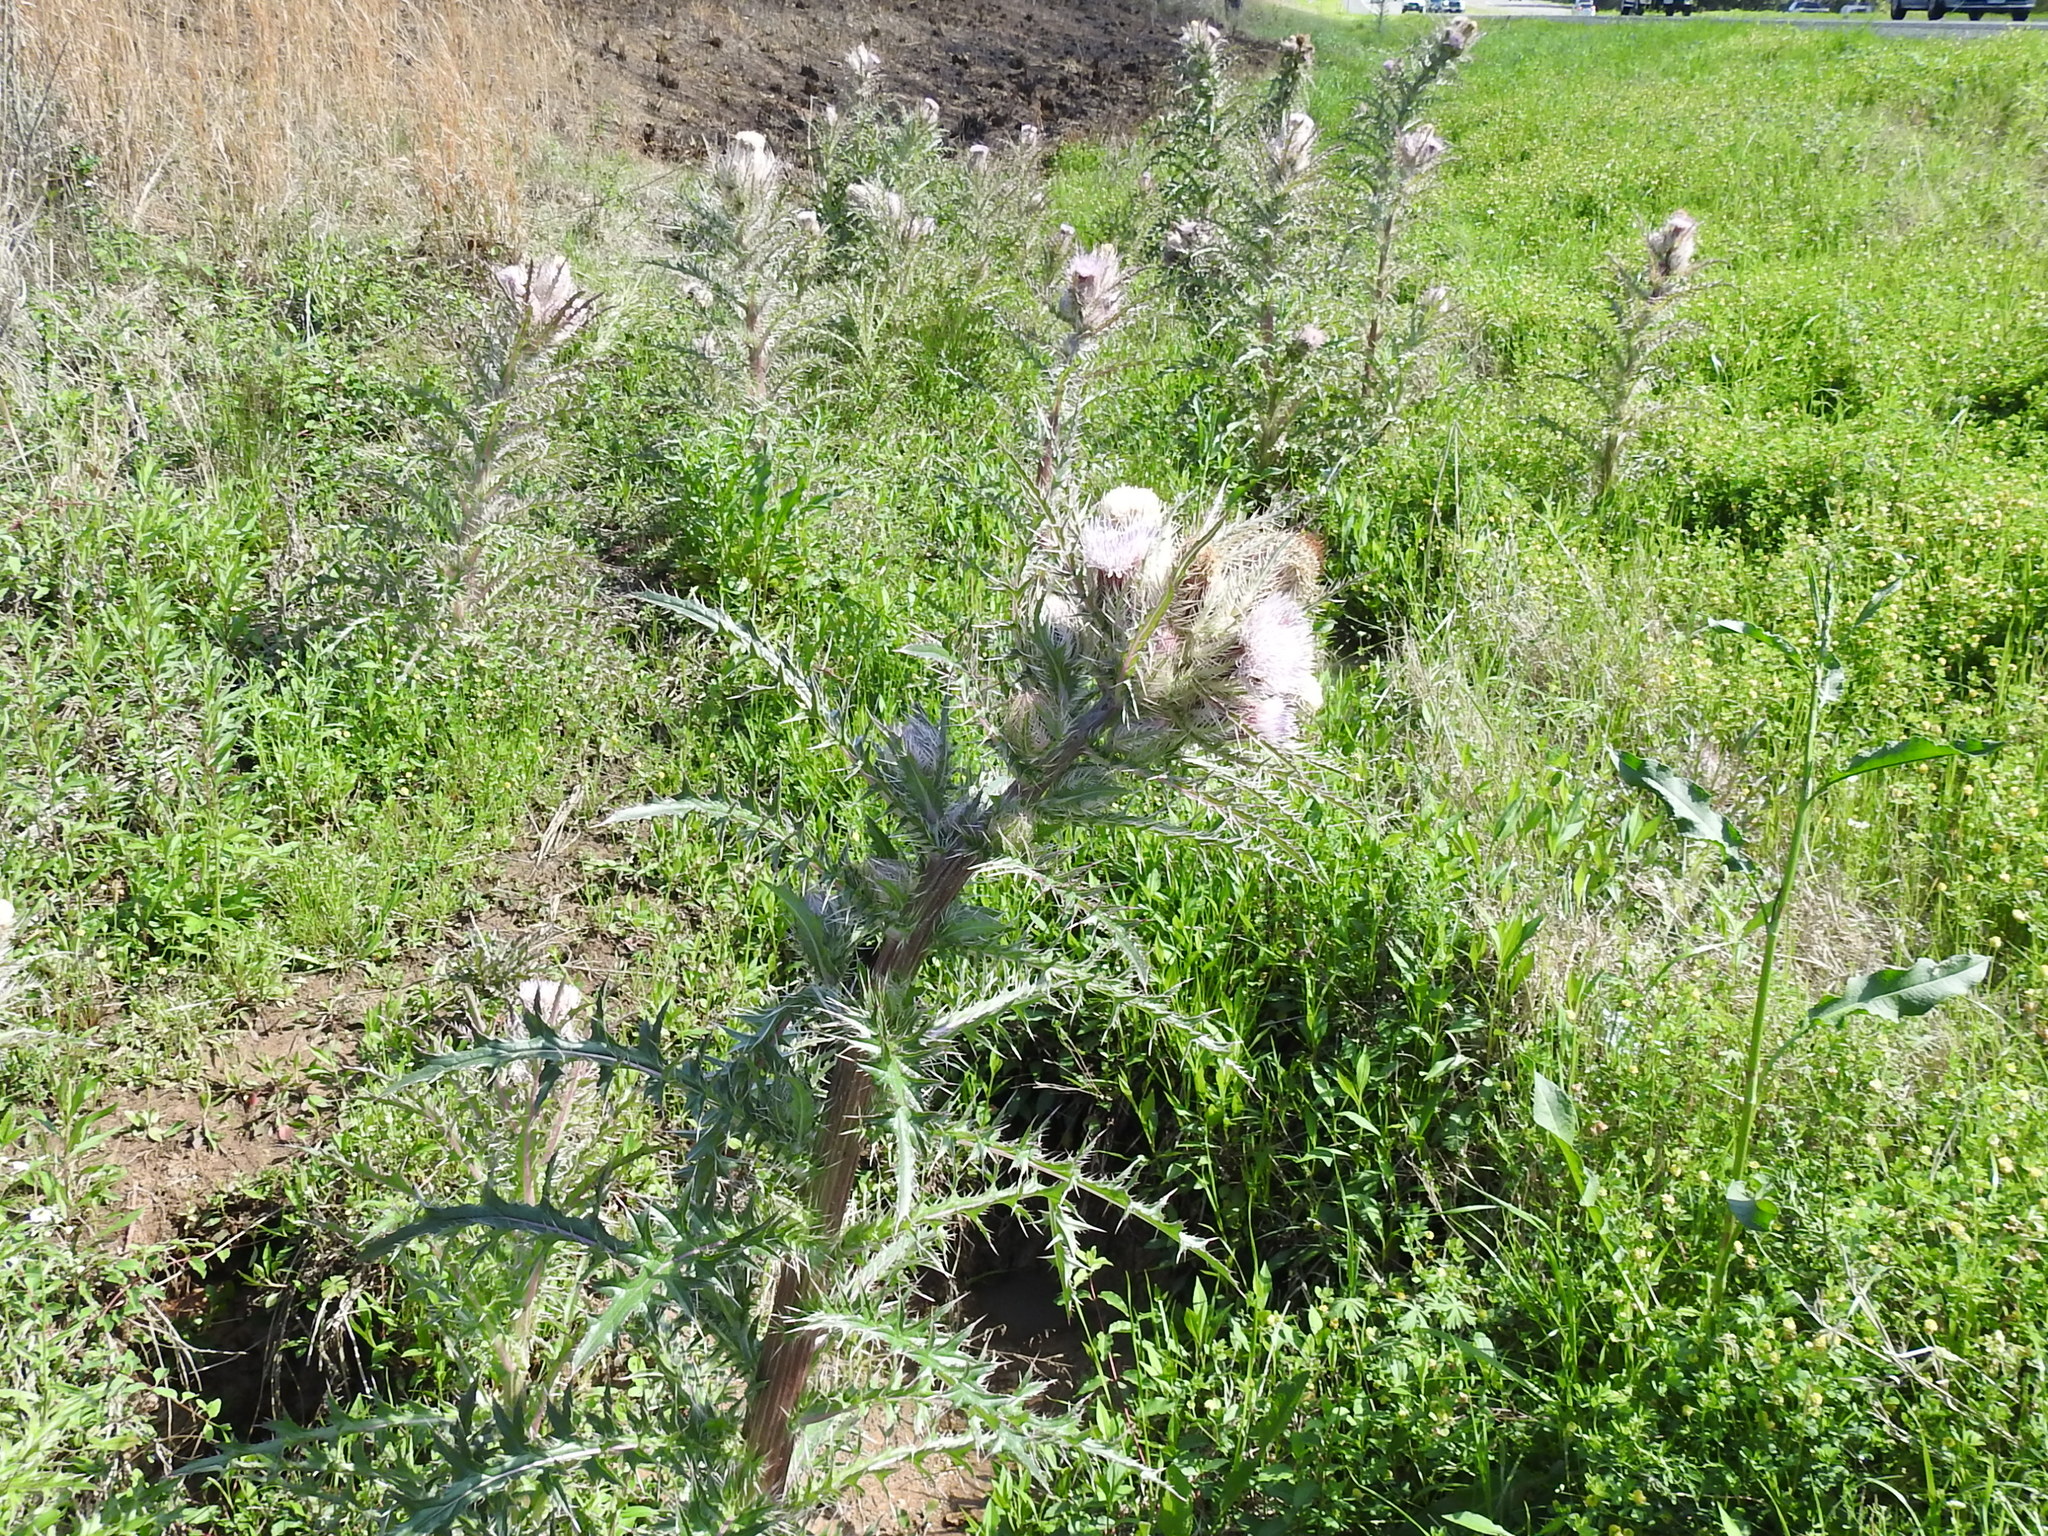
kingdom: Plantae
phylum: Tracheophyta
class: Magnoliopsida
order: Asterales
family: Asteraceae
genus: Cirsium
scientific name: Cirsium horridulum
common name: Bristly thistle
